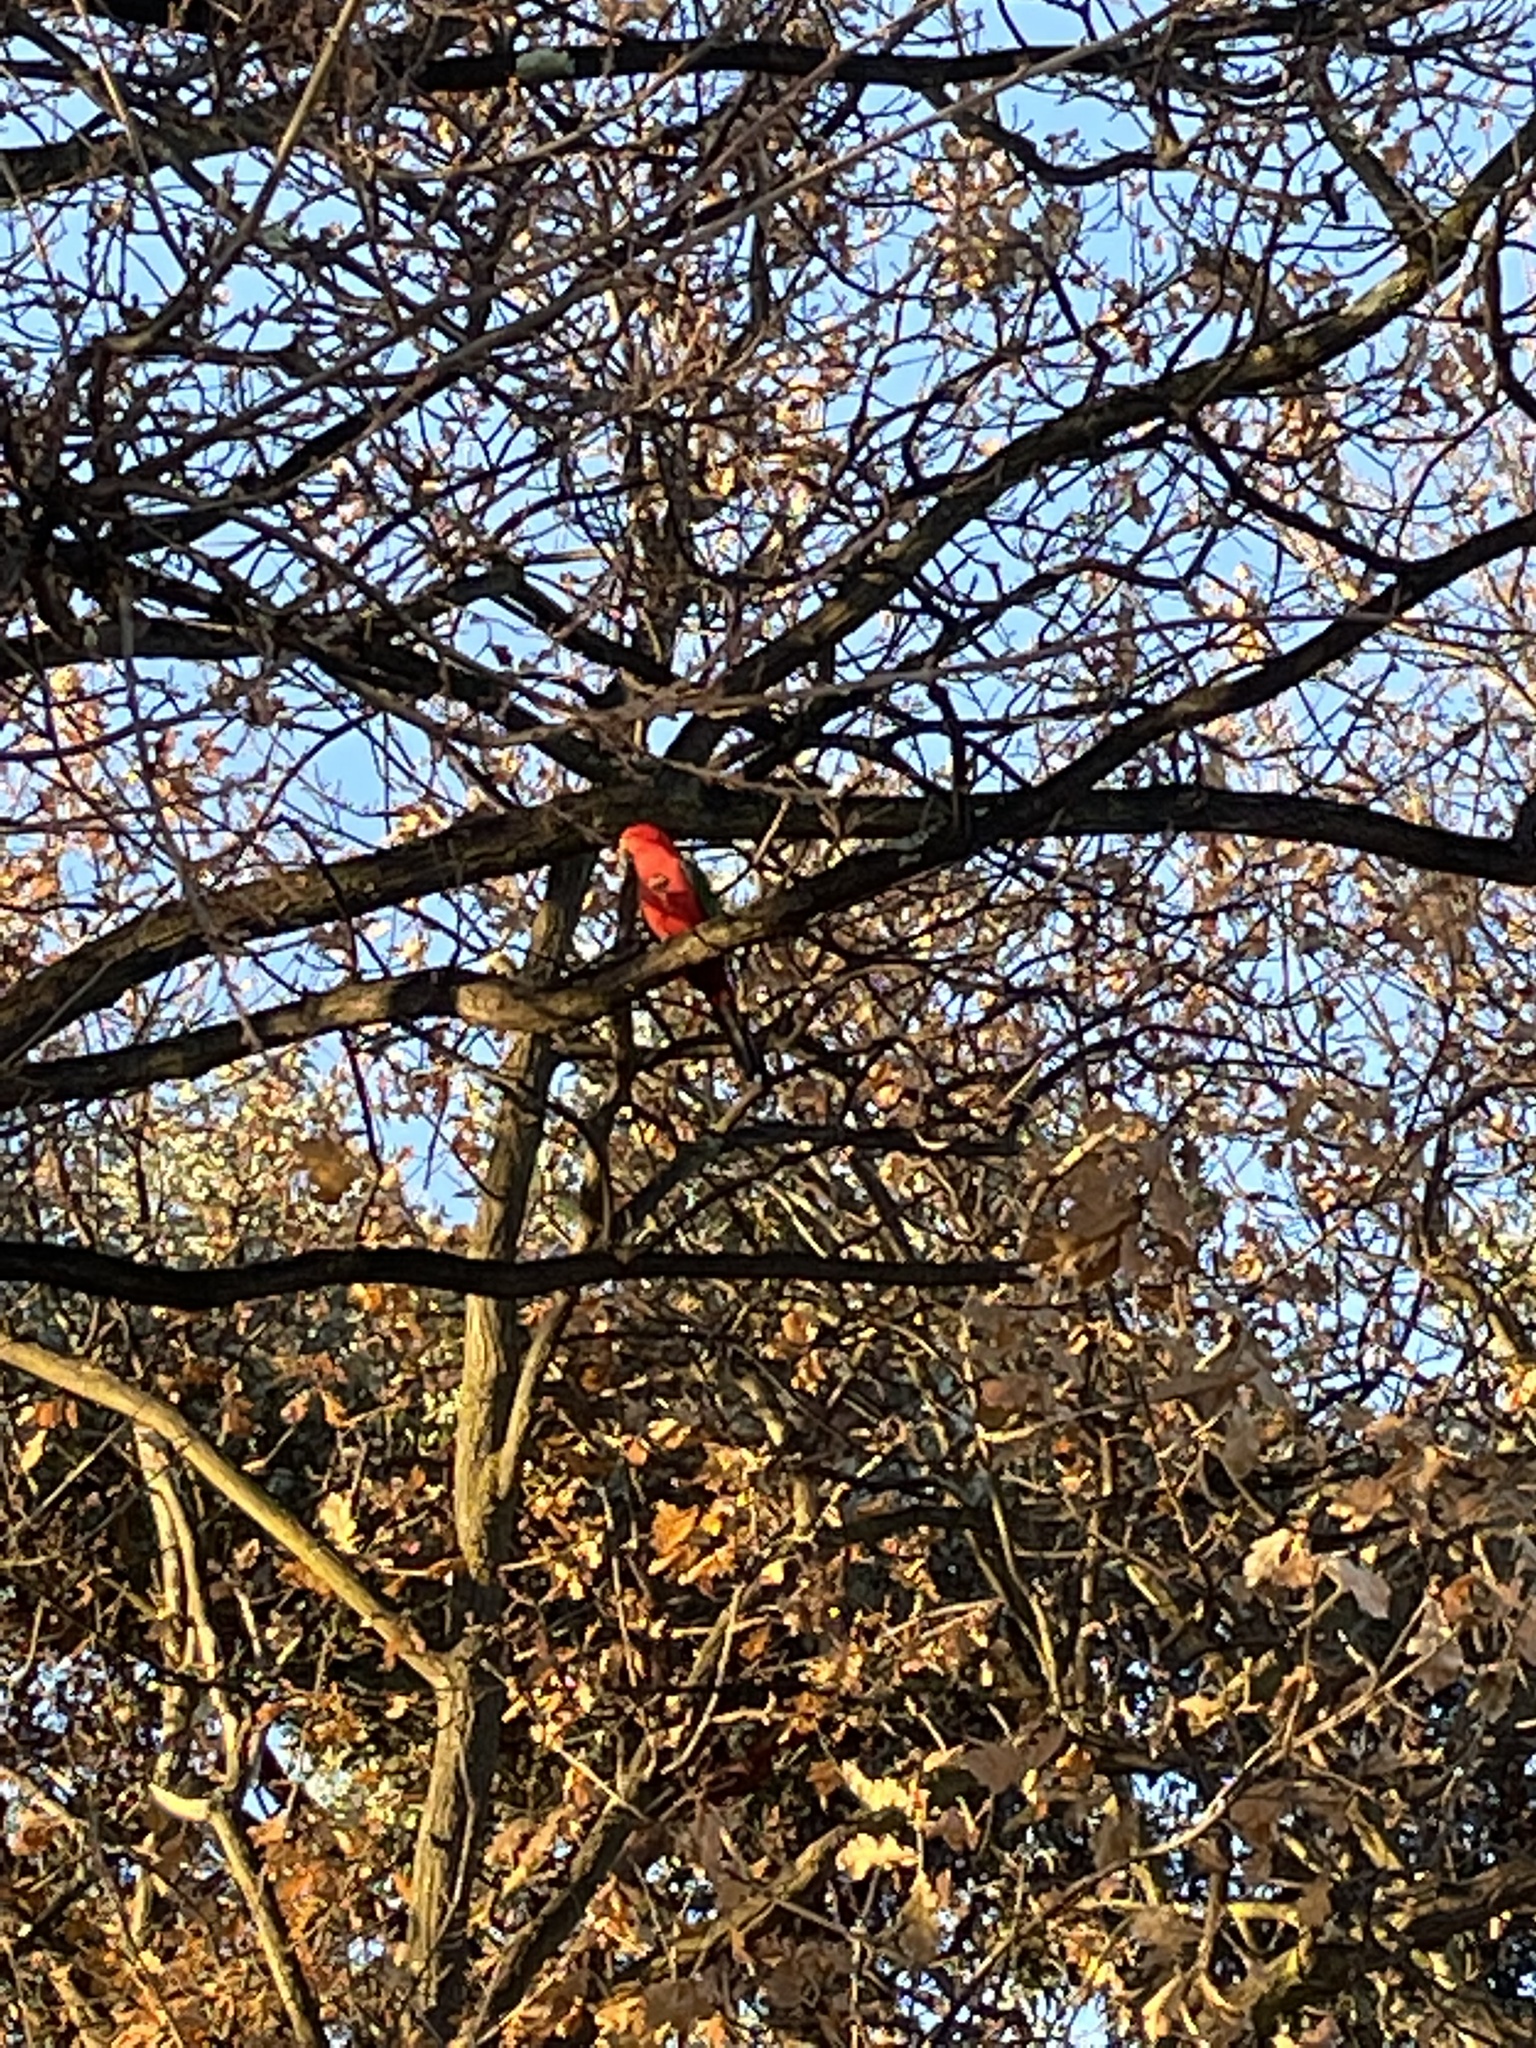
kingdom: Animalia
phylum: Chordata
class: Aves
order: Psittaciformes
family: Psittacidae
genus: Alisterus
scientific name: Alisterus scapularis
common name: Australian king parrot
